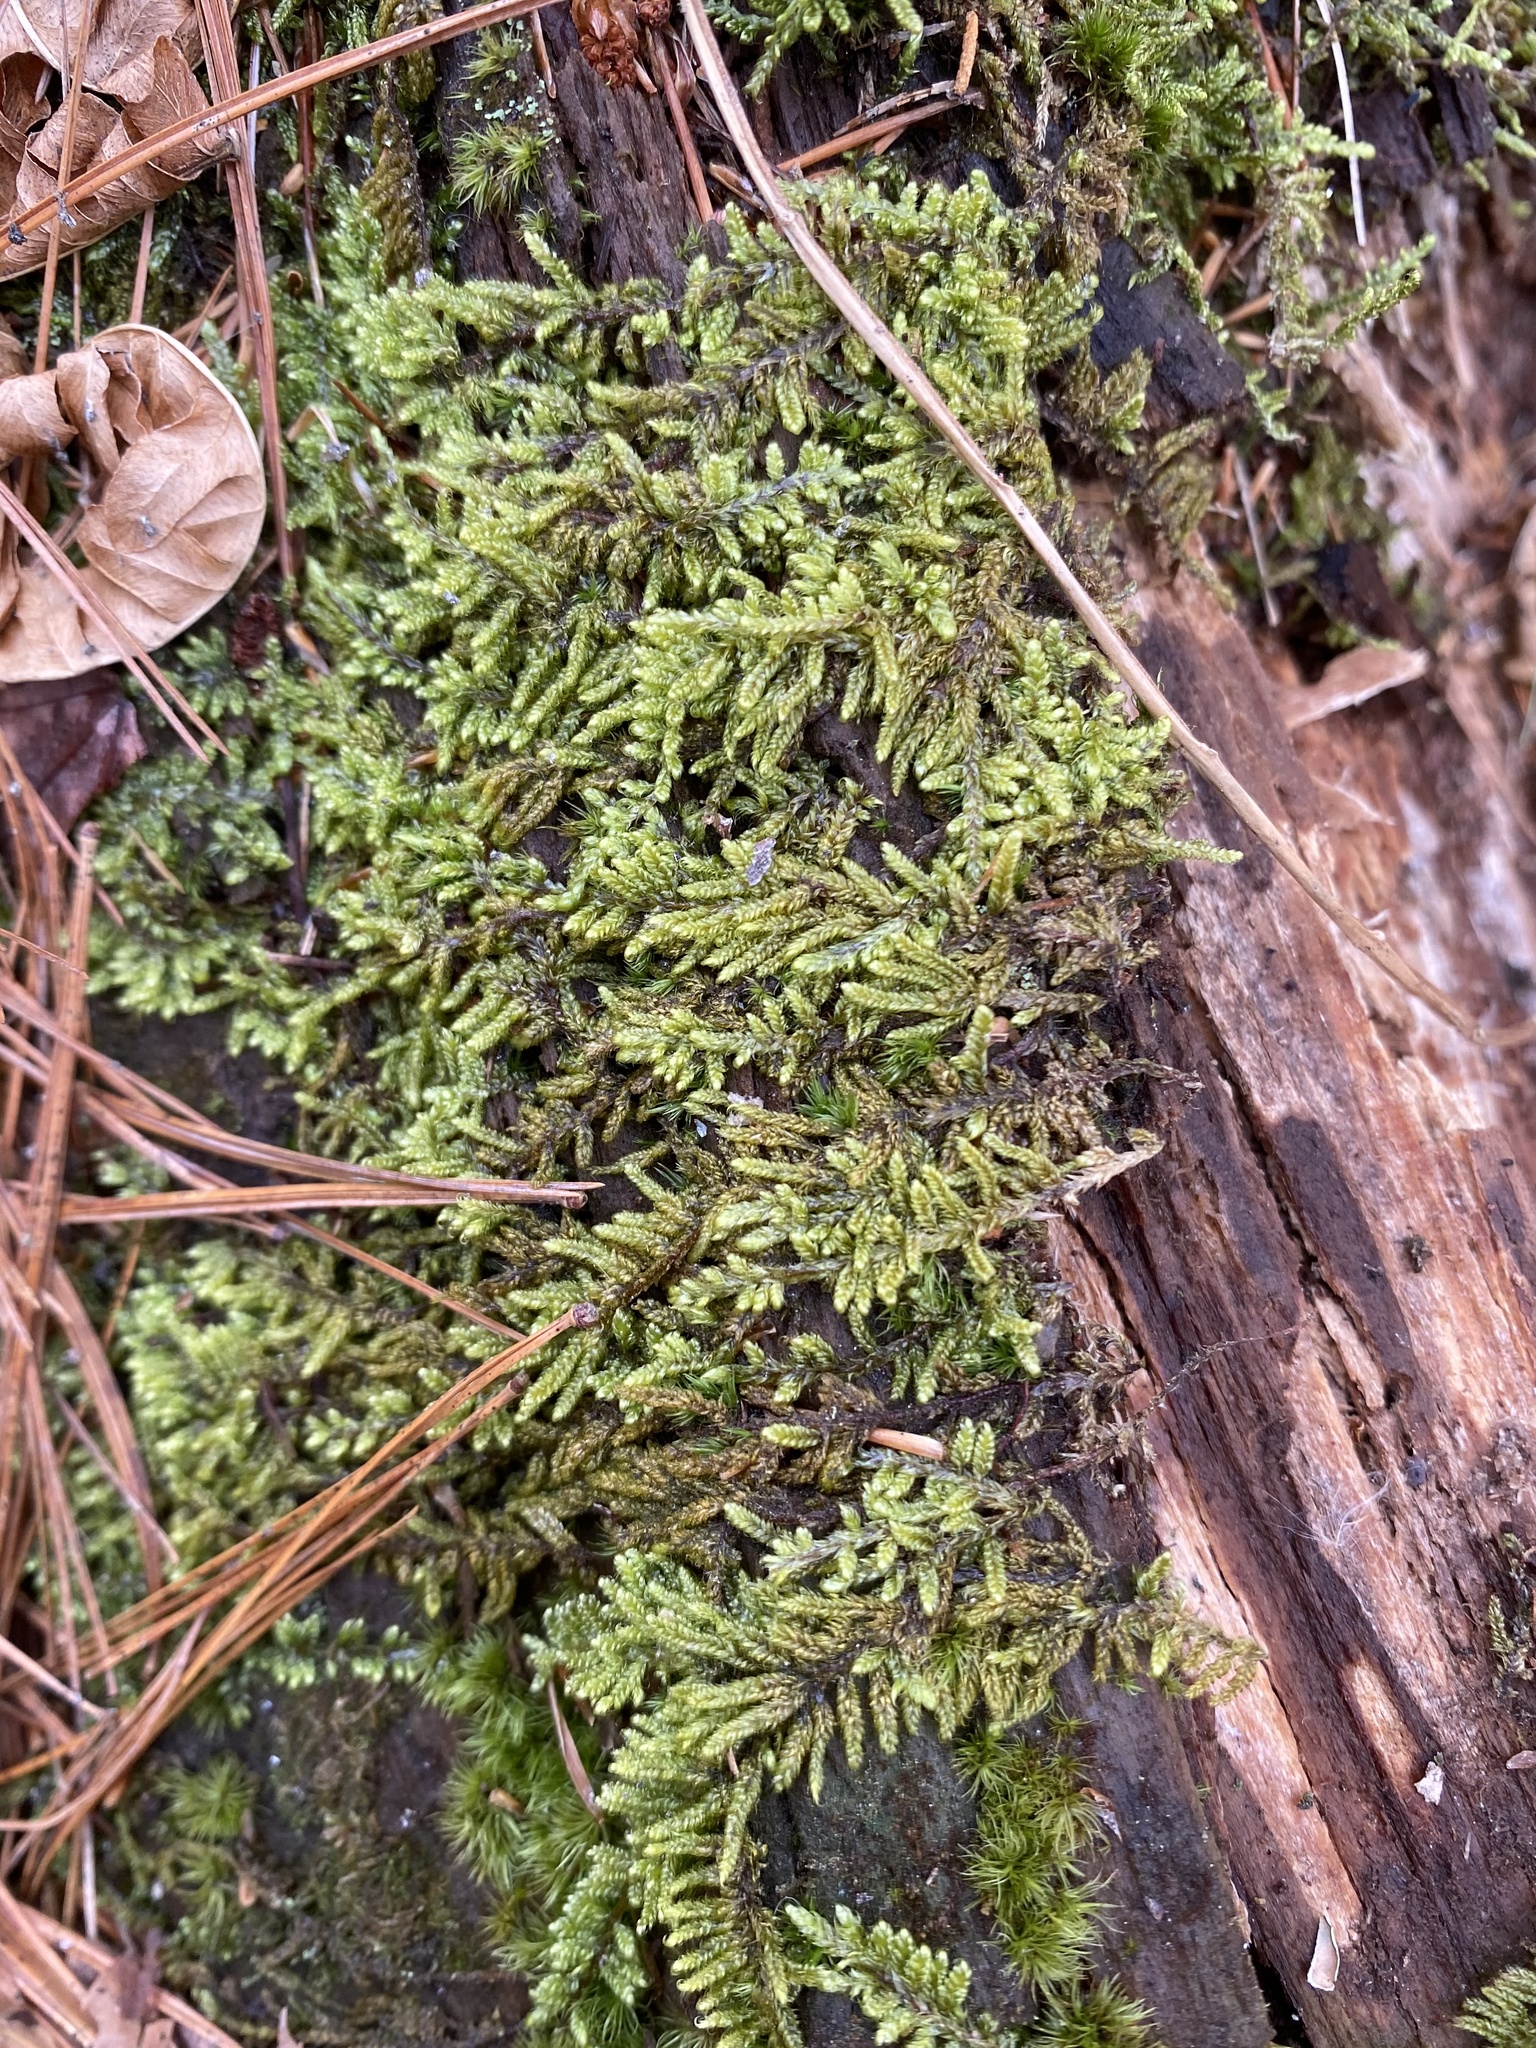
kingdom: Plantae
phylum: Bryophyta
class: Bryopsida
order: Hypnales
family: Callicladiaceae
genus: Callicladium
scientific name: Callicladium imponens
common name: Brocade moss
